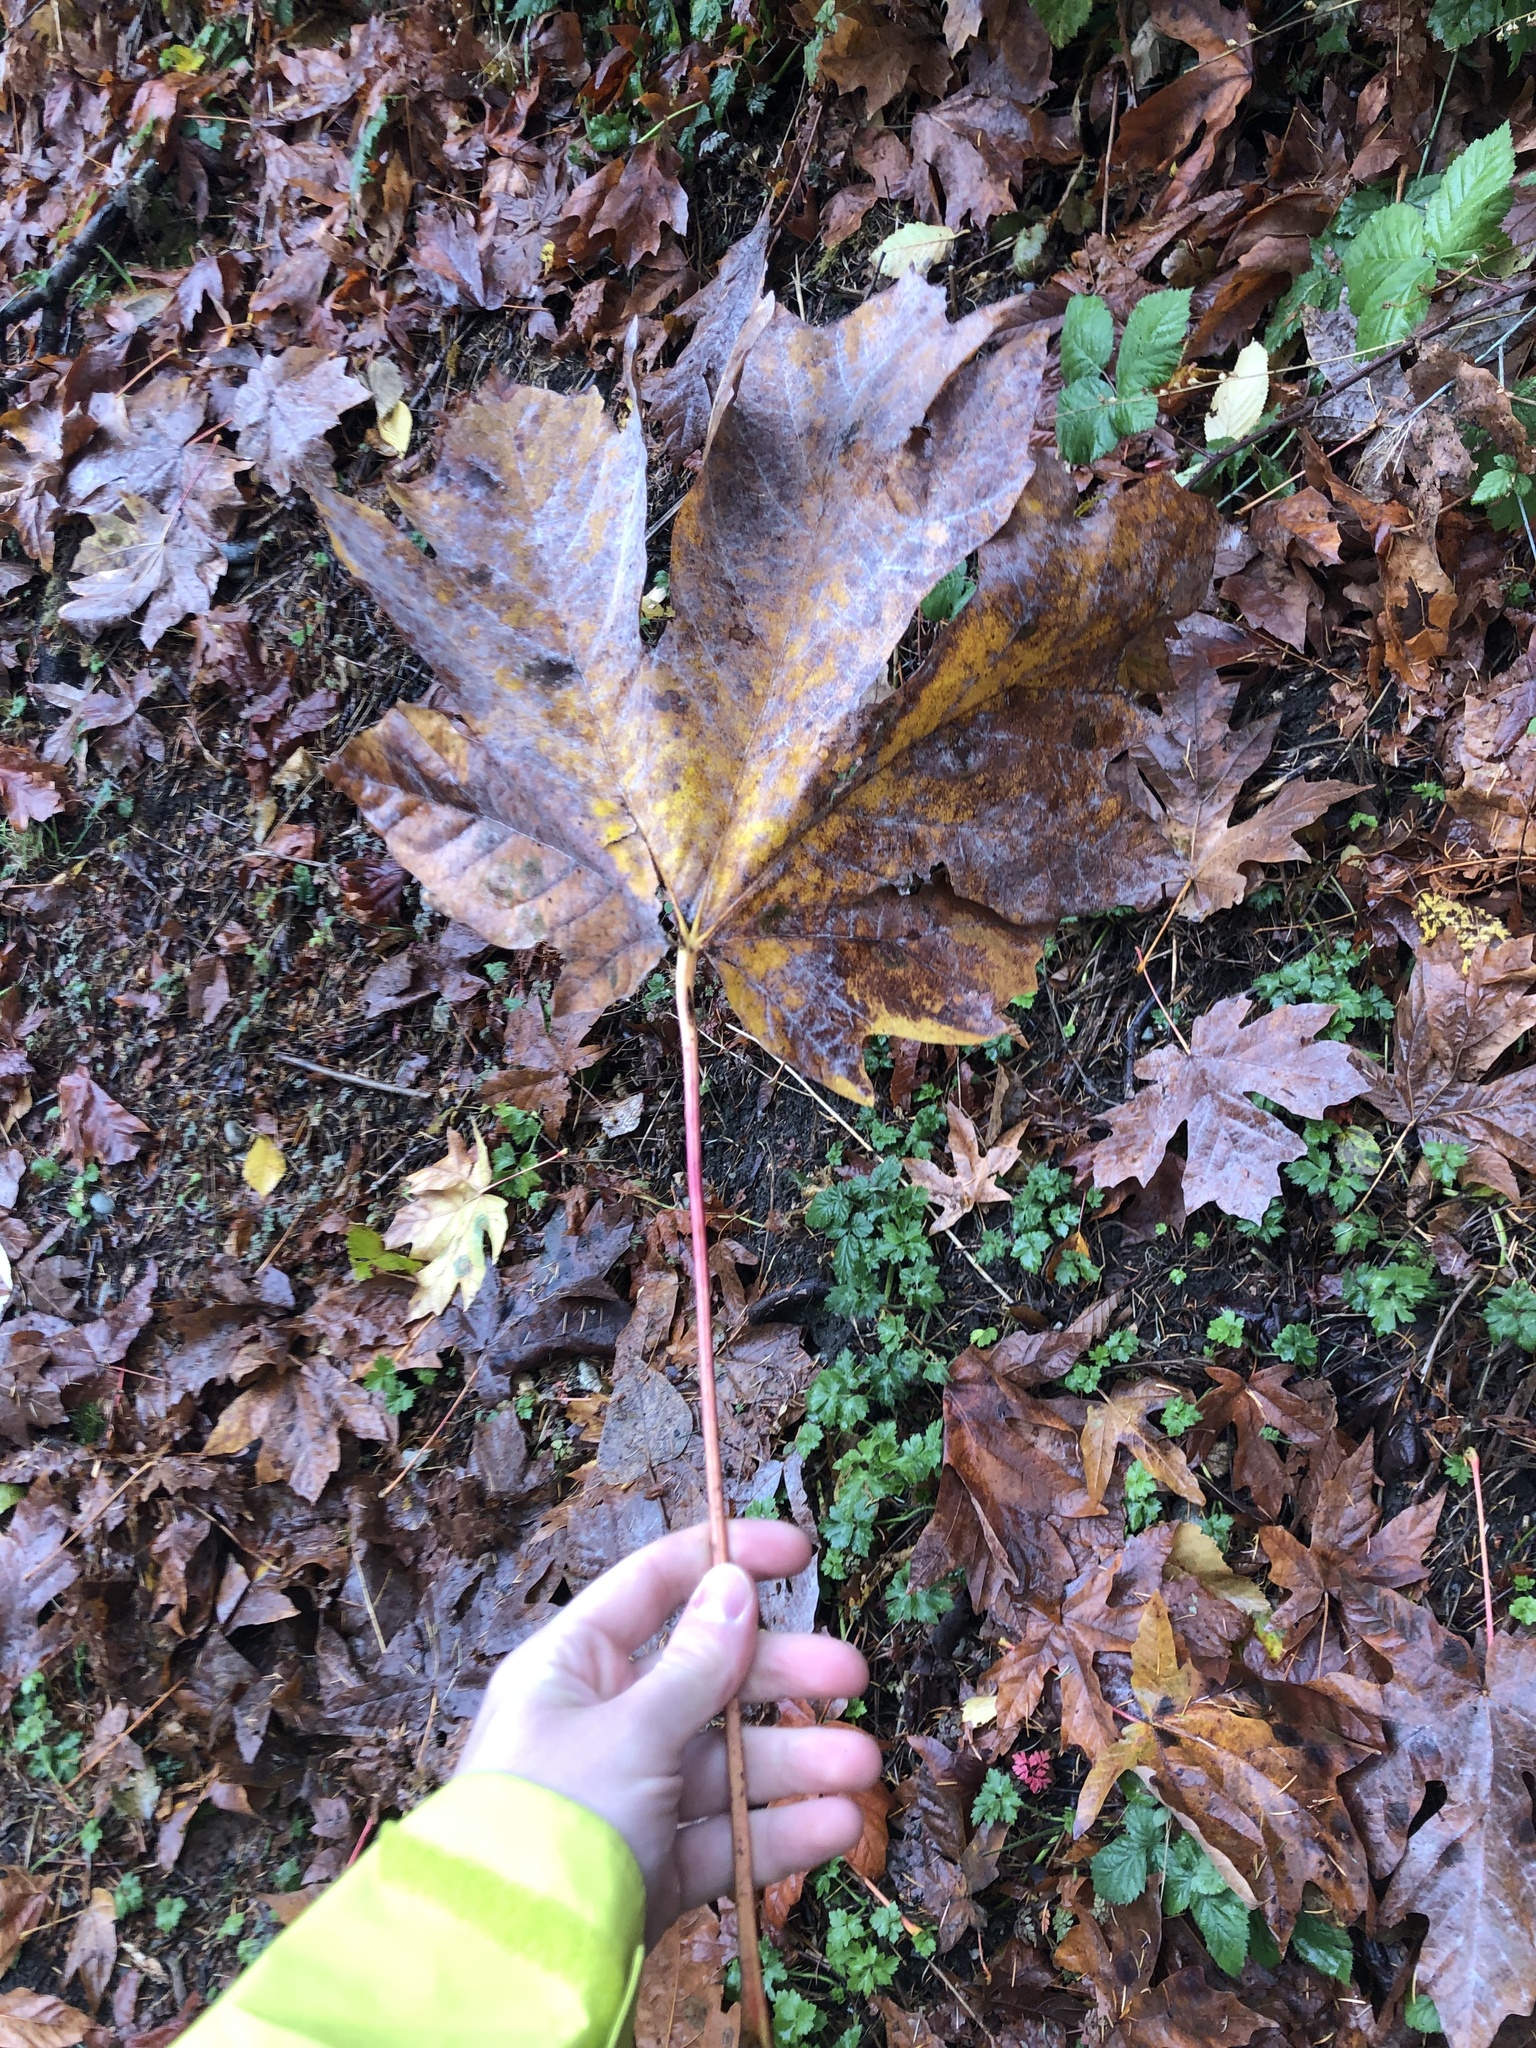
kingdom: Plantae
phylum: Tracheophyta
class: Magnoliopsida
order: Sapindales
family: Sapindaceae
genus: Acer
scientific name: Acer macrophyllum
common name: Oregon maple
